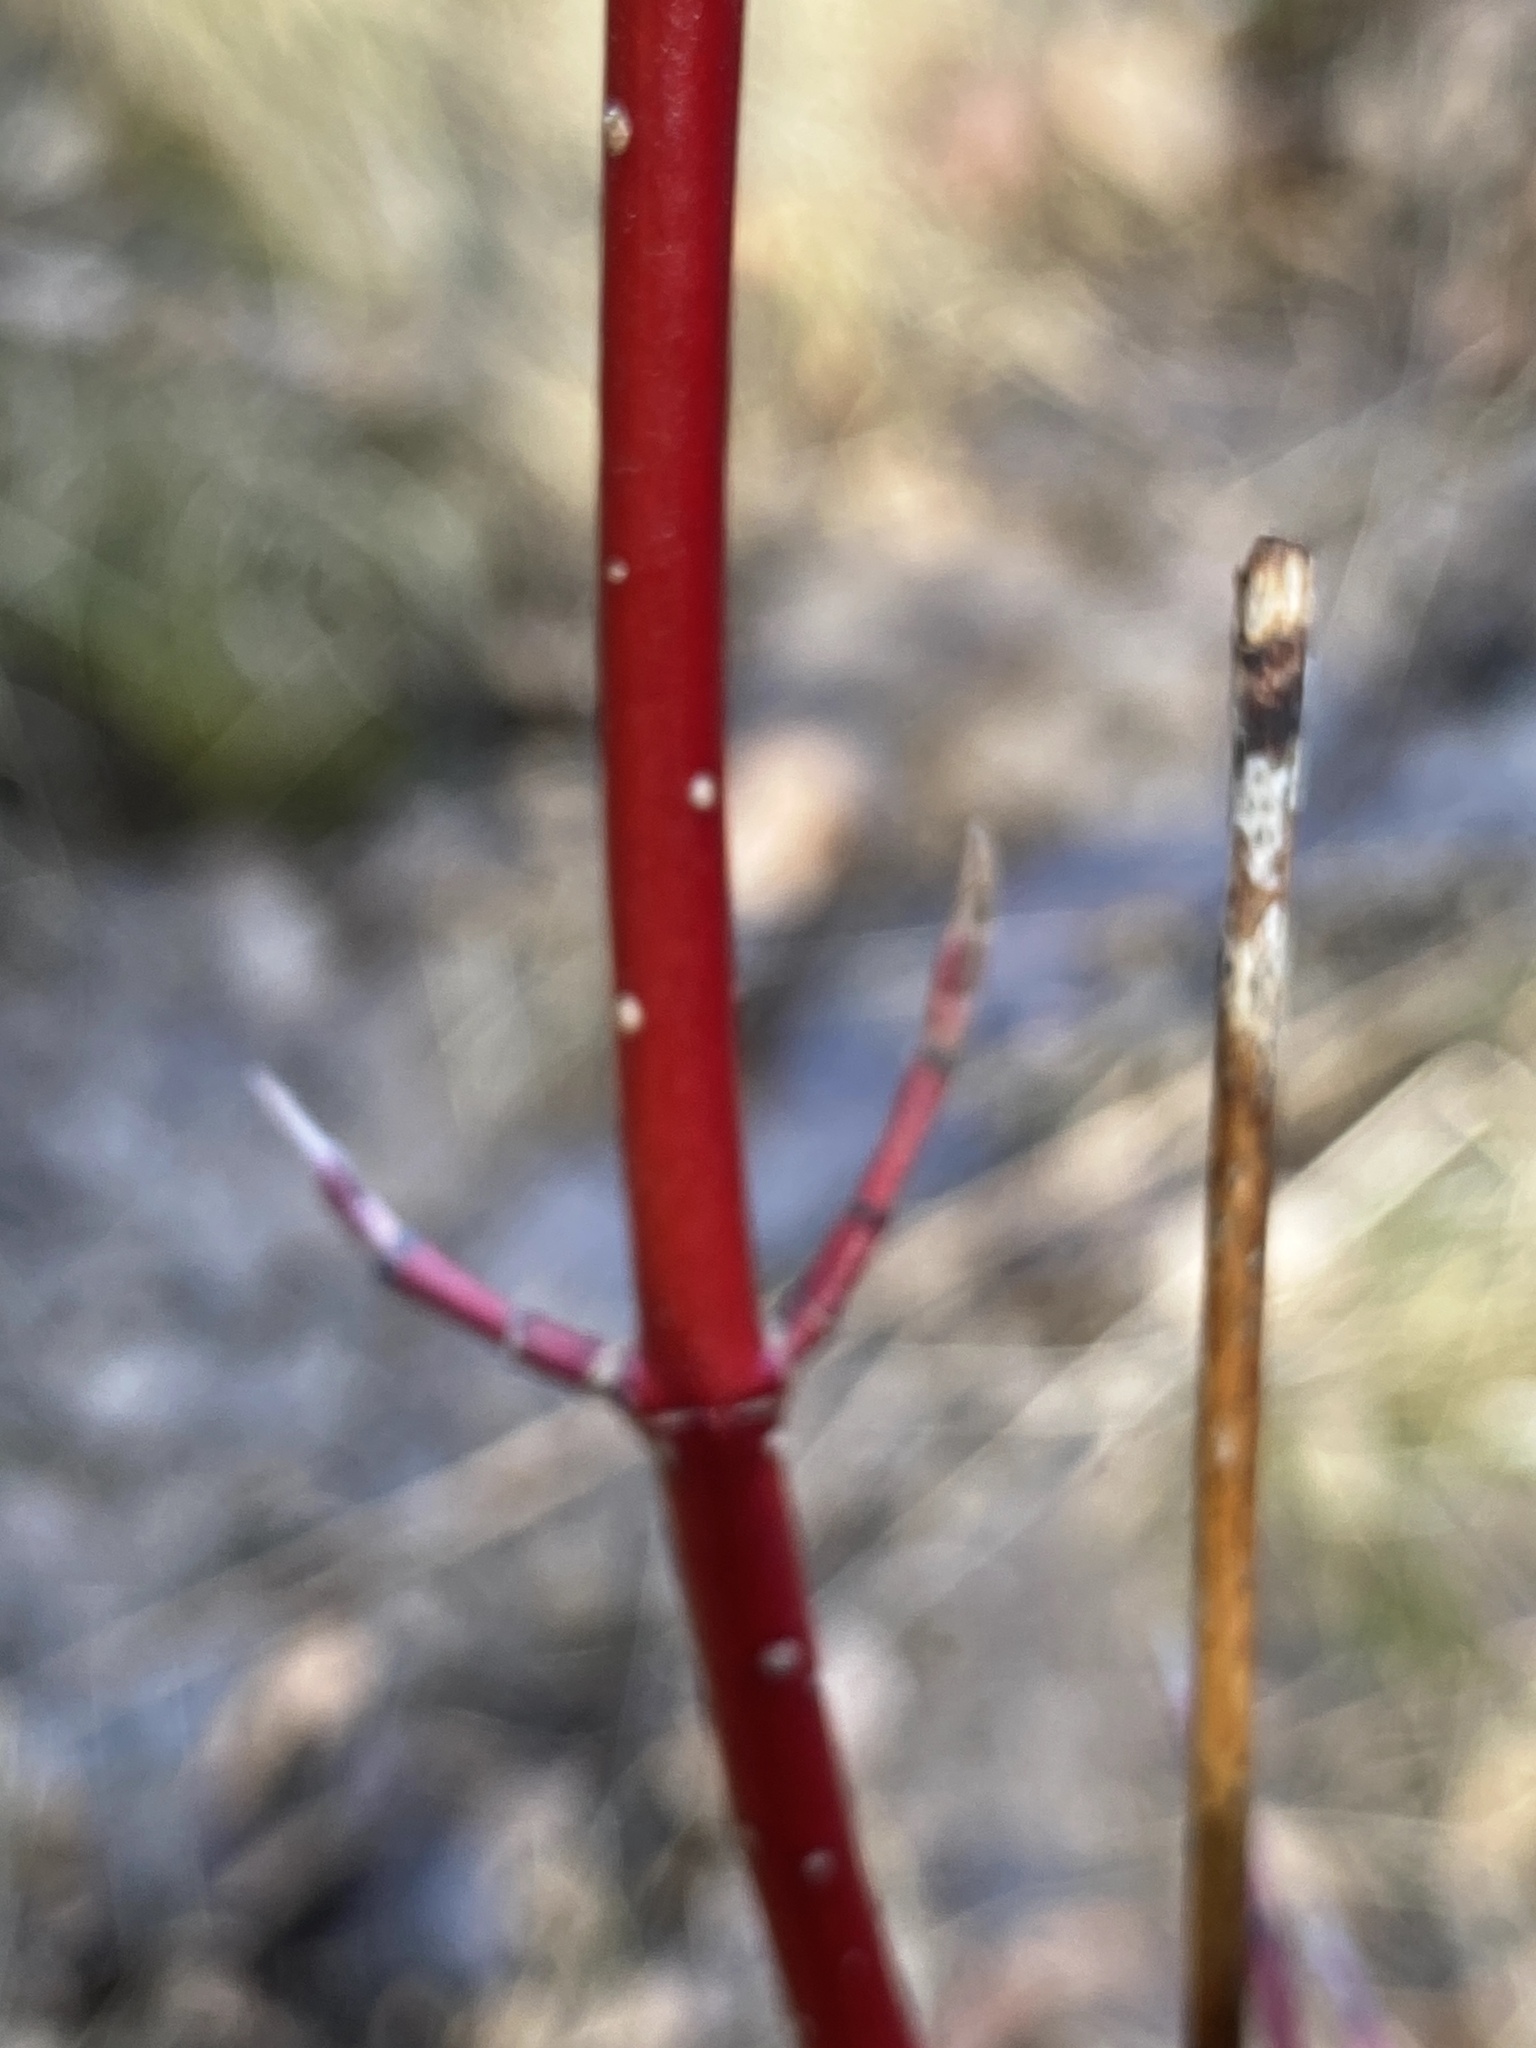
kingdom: Plantae
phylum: Tracheophyta
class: Magnoliopsida
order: Cornales
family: Cornaceae
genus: Cornus
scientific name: Cornus sericea
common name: Red-osier dogwood
